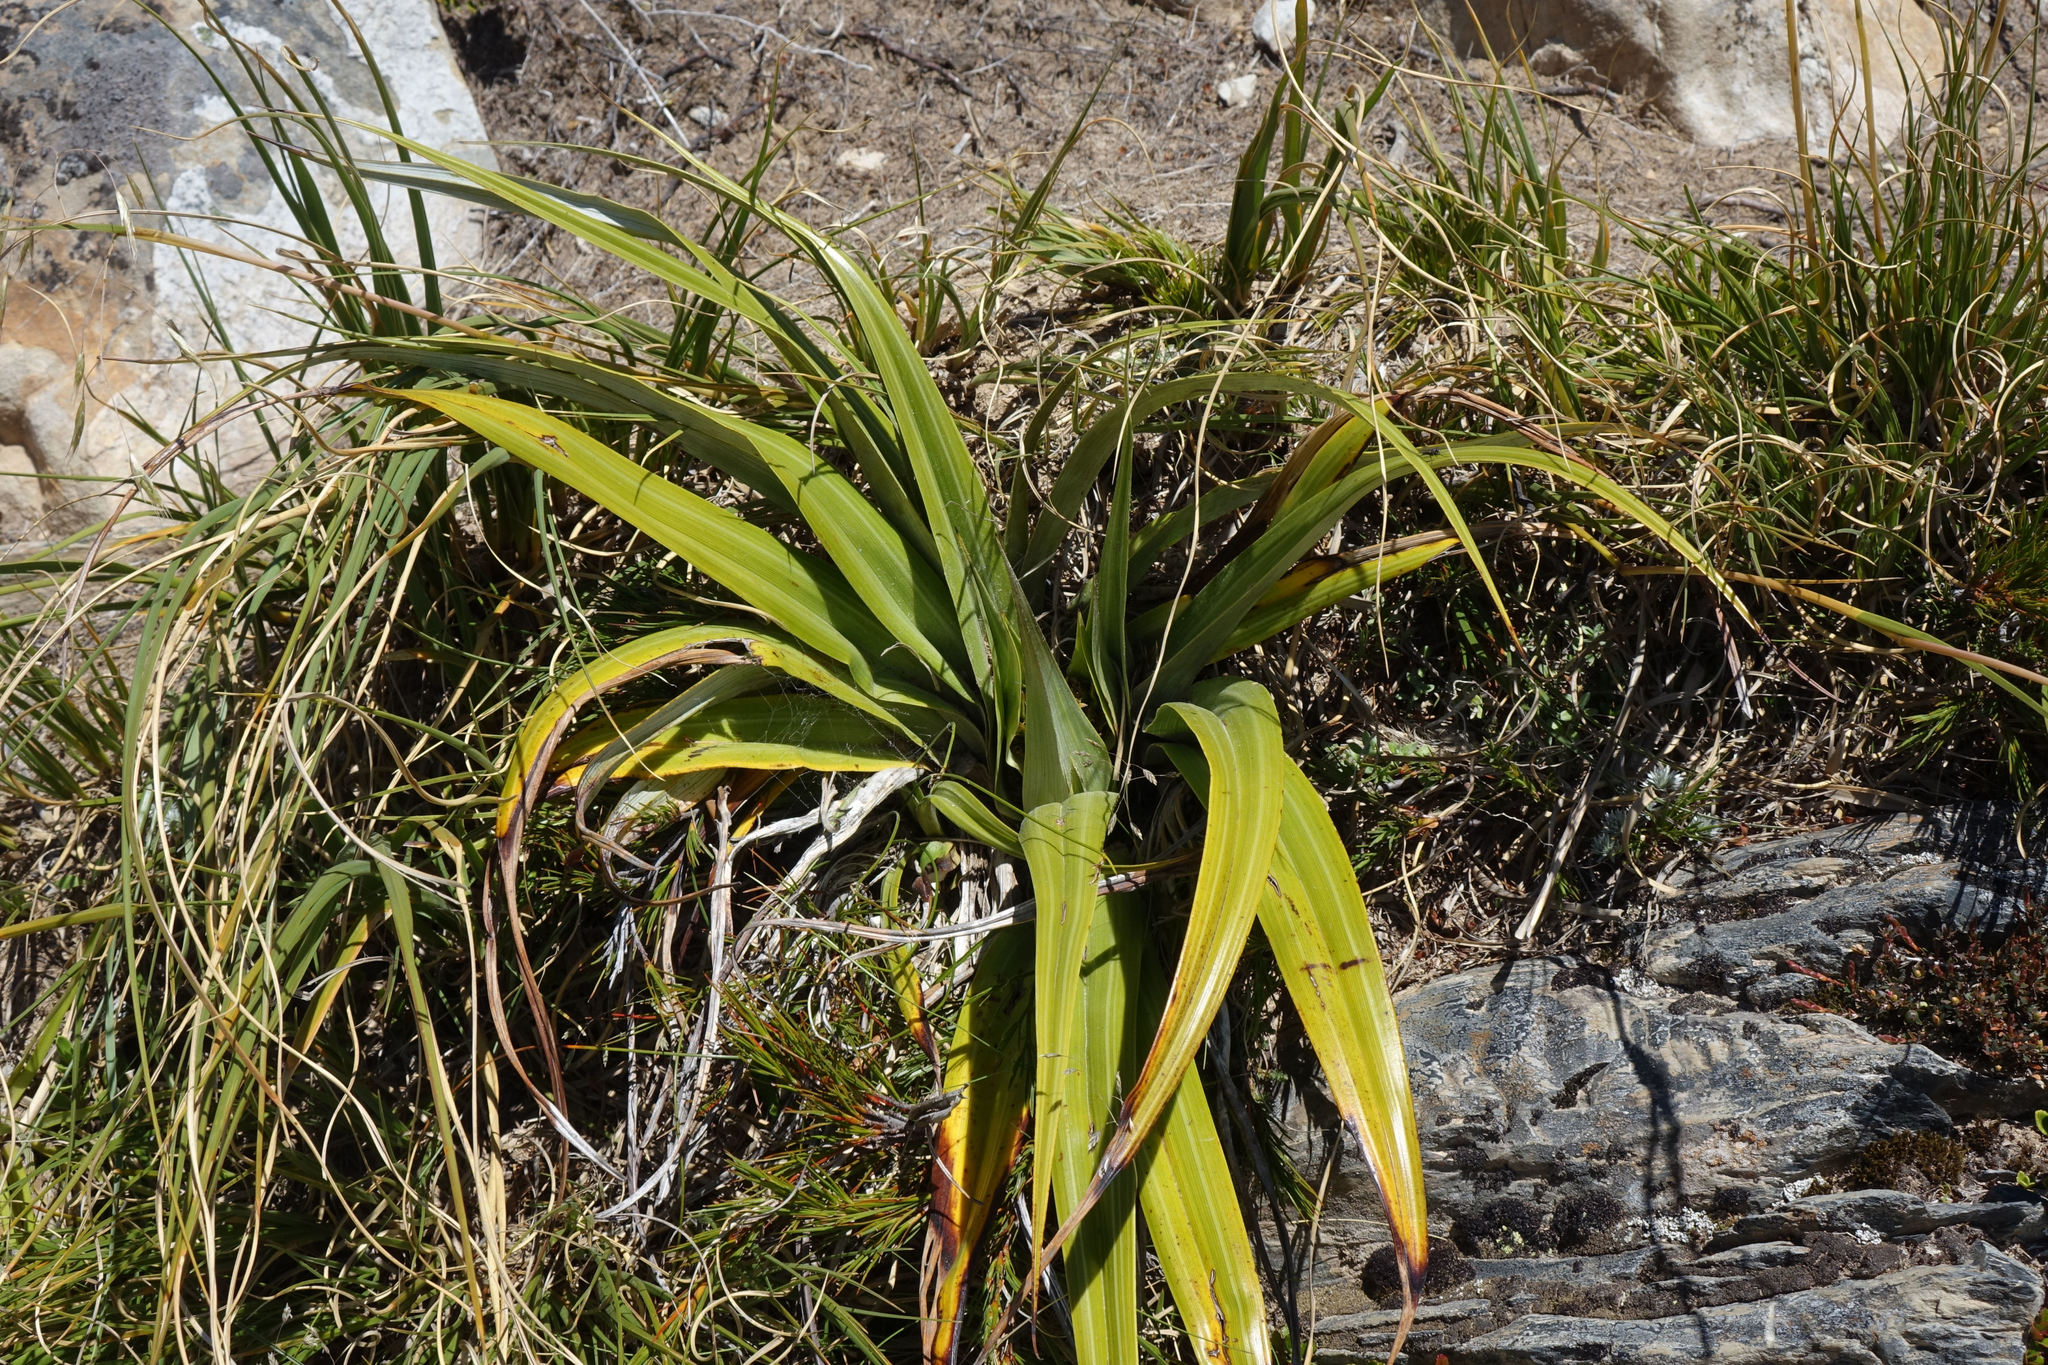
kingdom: Plantae
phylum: Tracheophyta
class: Liliopsida
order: Asparagales
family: Asteliaceae
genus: Astelia
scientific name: Astelia petriei
